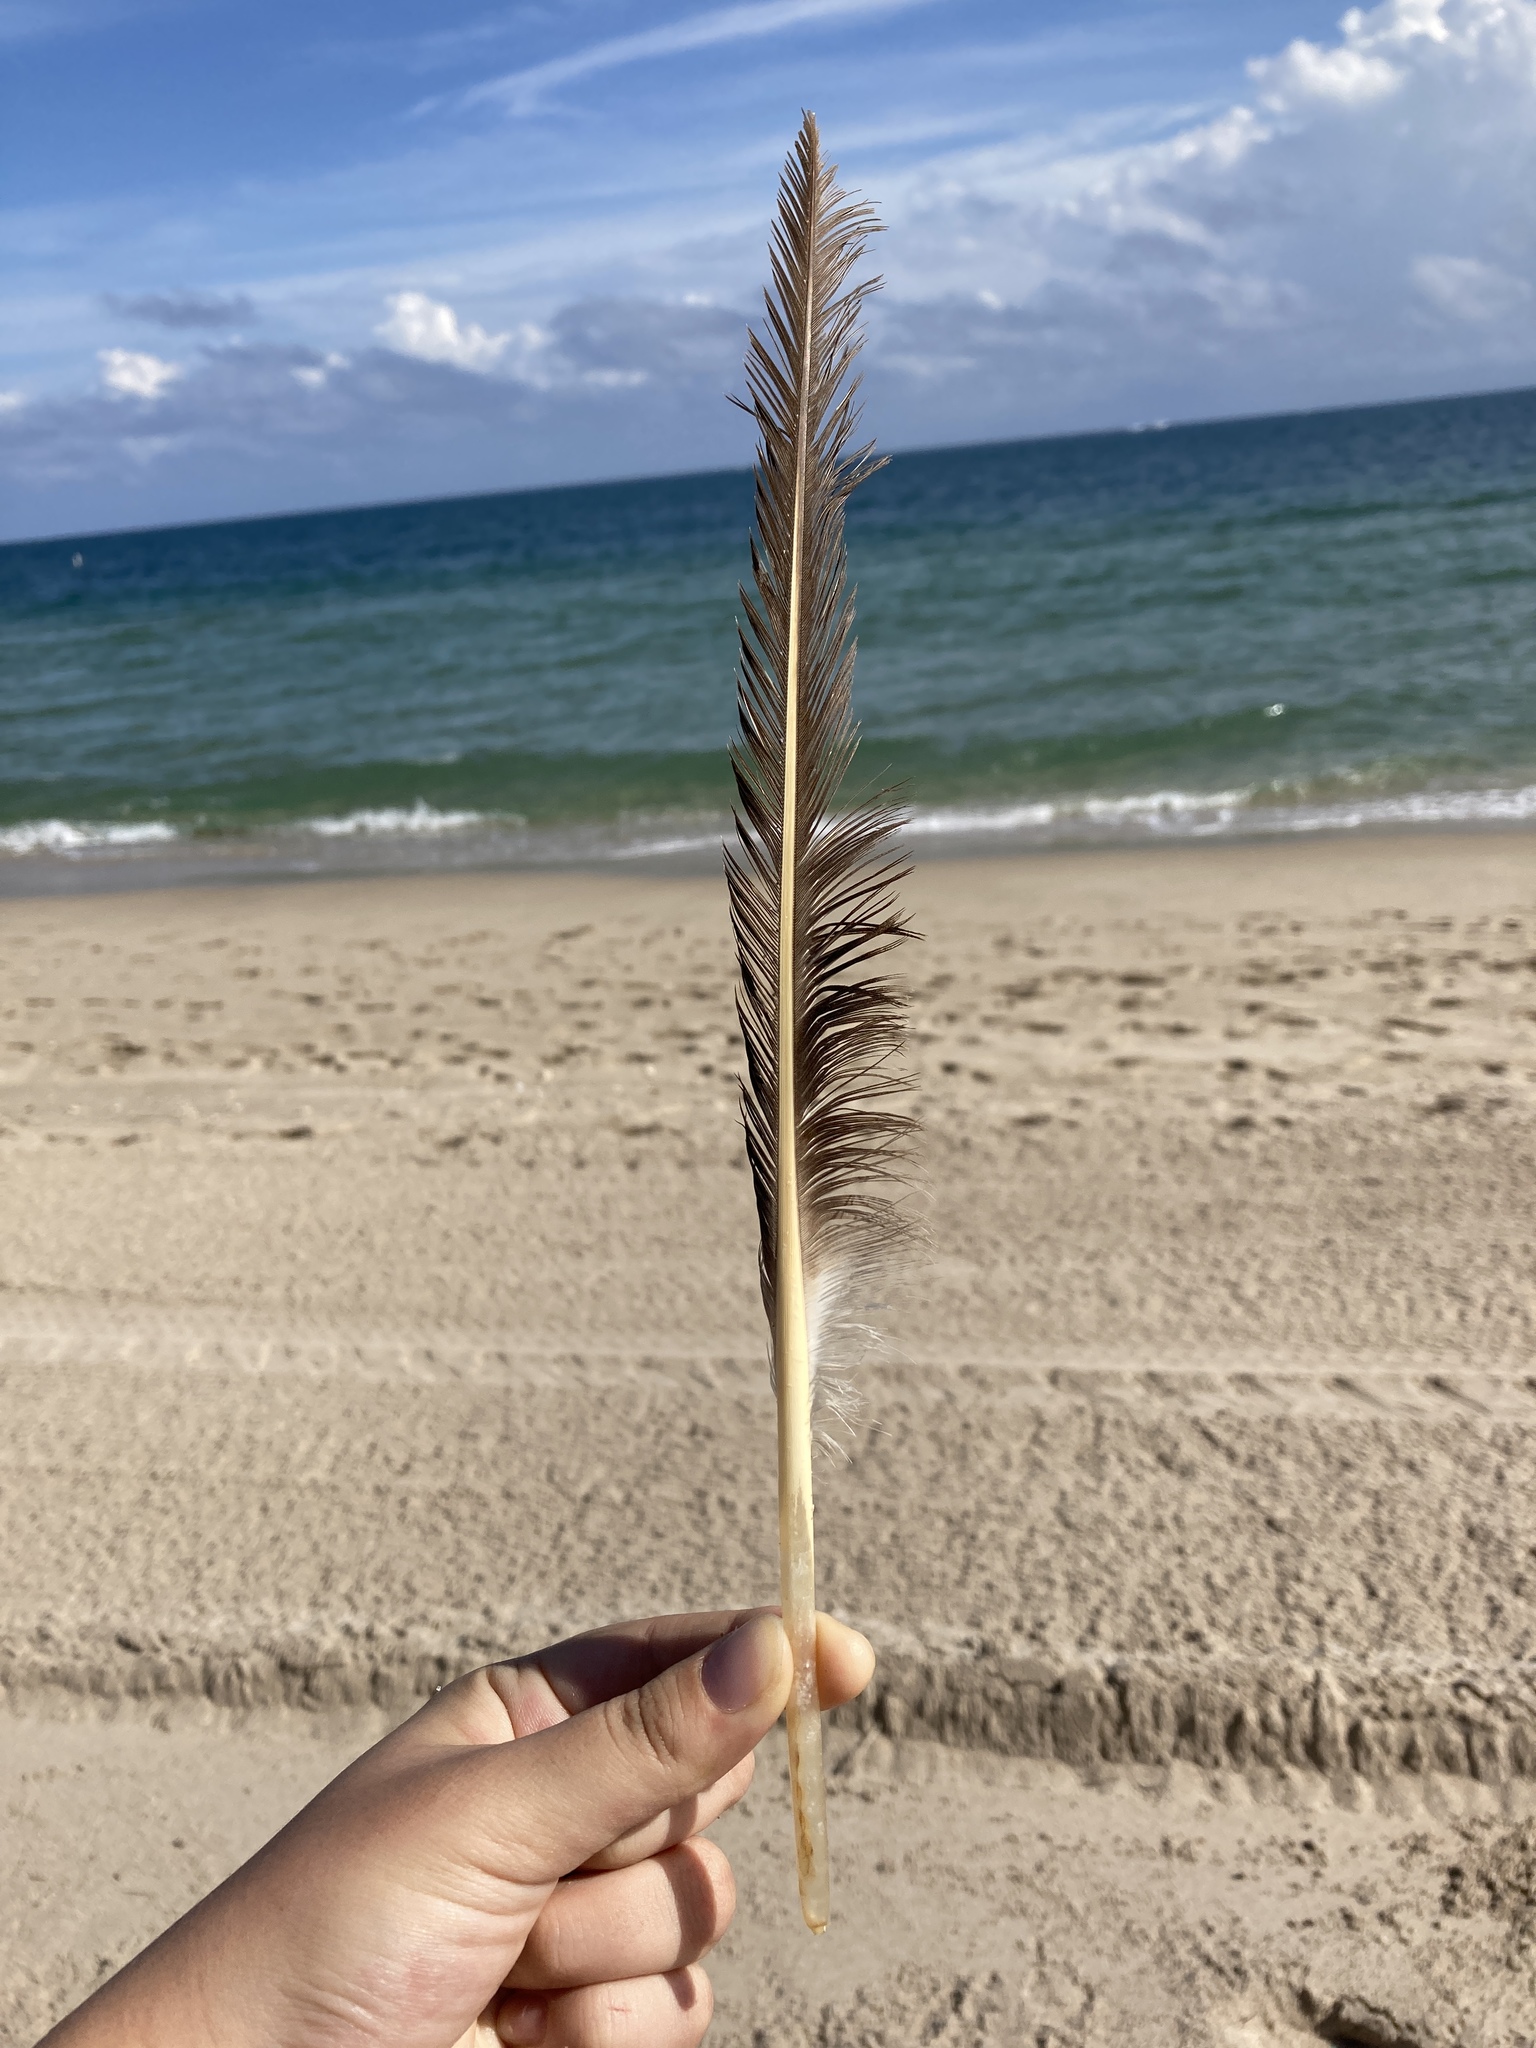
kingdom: Animalia
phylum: Chordata
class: Aves
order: Pelecaniformes
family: Pelecanidae
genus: Pelecanus
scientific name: Pelecanus occidentalis
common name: Brown pelican
